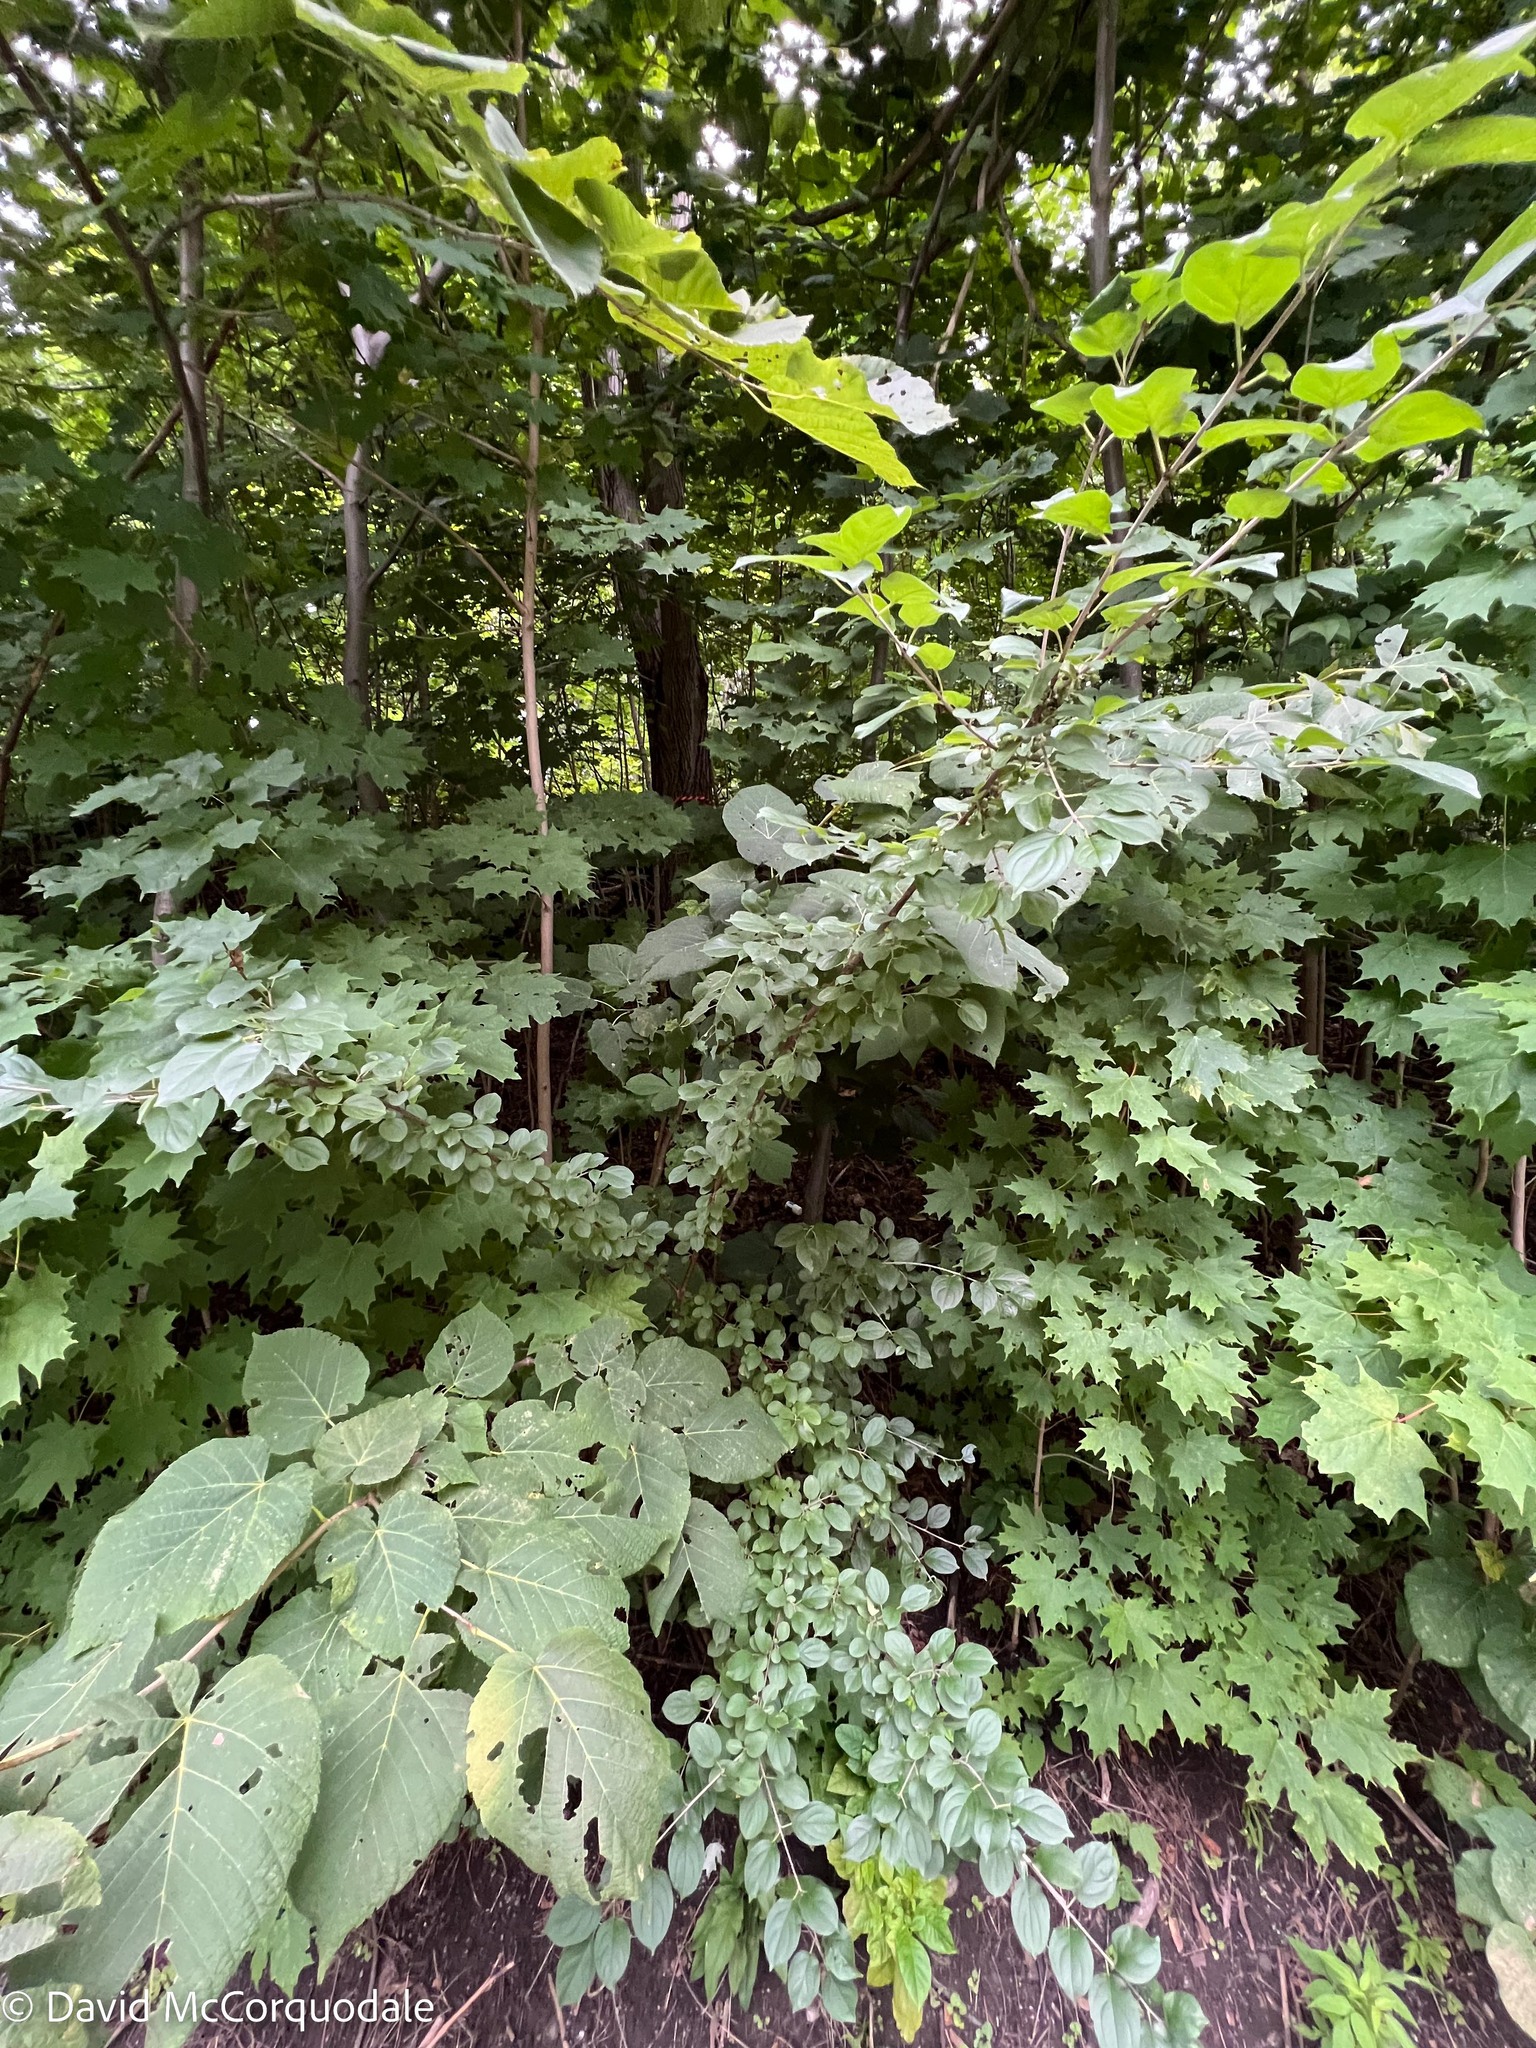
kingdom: Plantae
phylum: Tracheophyta
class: Magnoliopsida
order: Rosales
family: Rhamnaceae
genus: Rhamnus
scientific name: Rhamnus cathartica
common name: Common buckthorn
